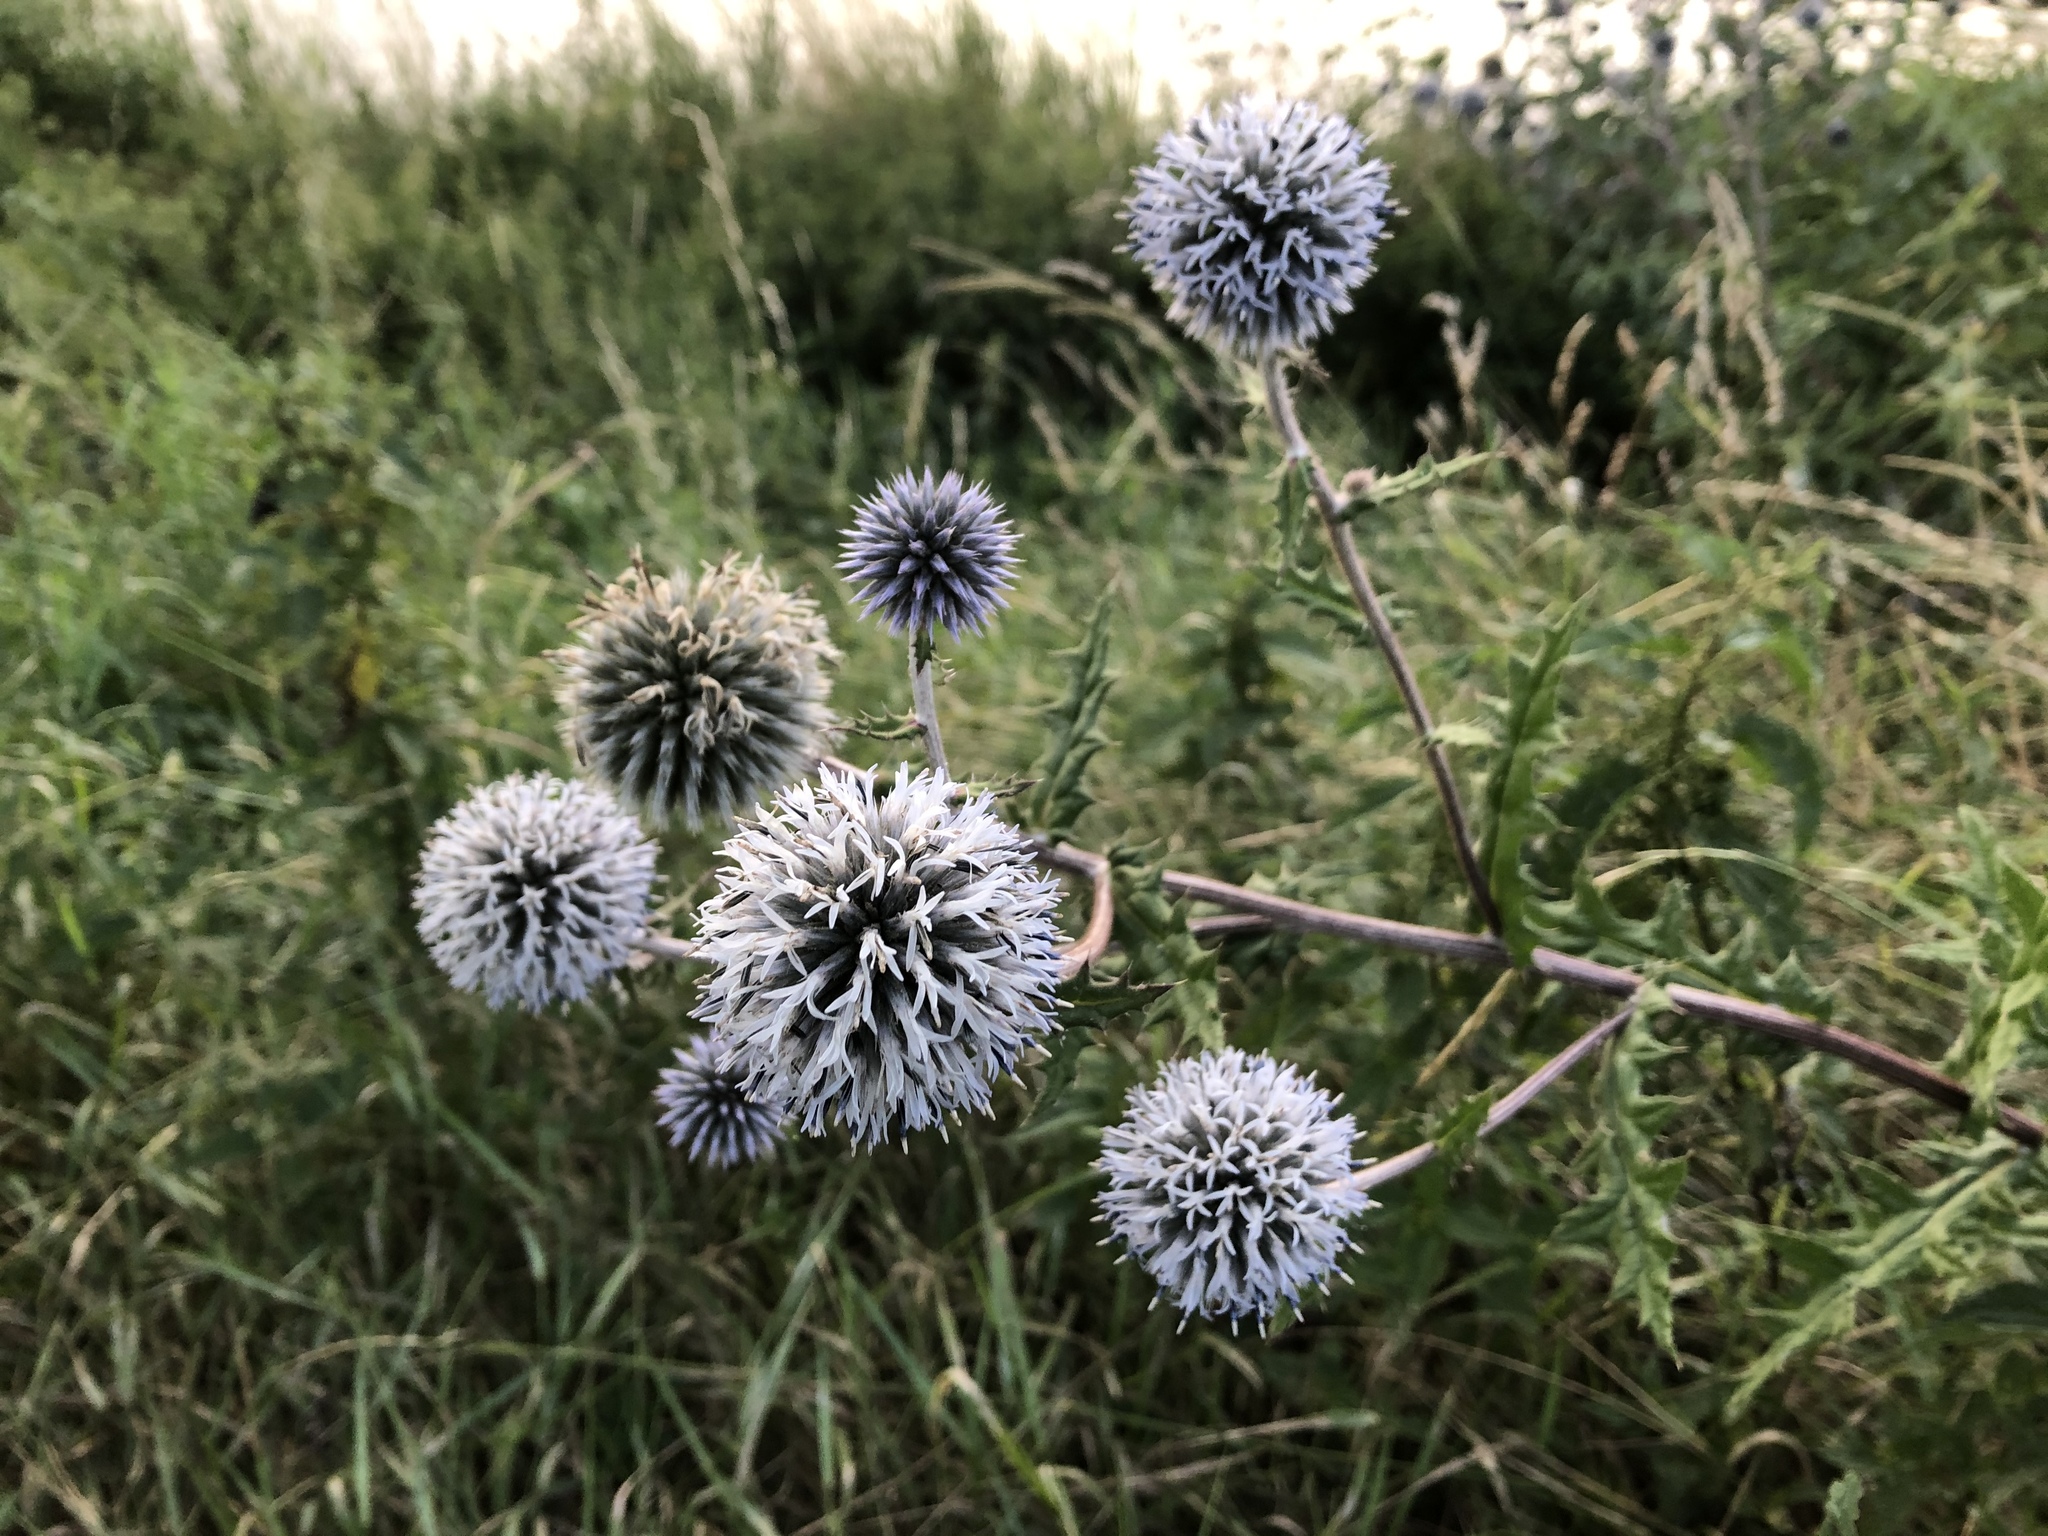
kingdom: Plantae
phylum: Tracheophyta
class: Magnoliopsida
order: Asterales
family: Asteraceae
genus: Echinops
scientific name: Echinops sphaerocephalus
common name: Glandular globe-thistle
